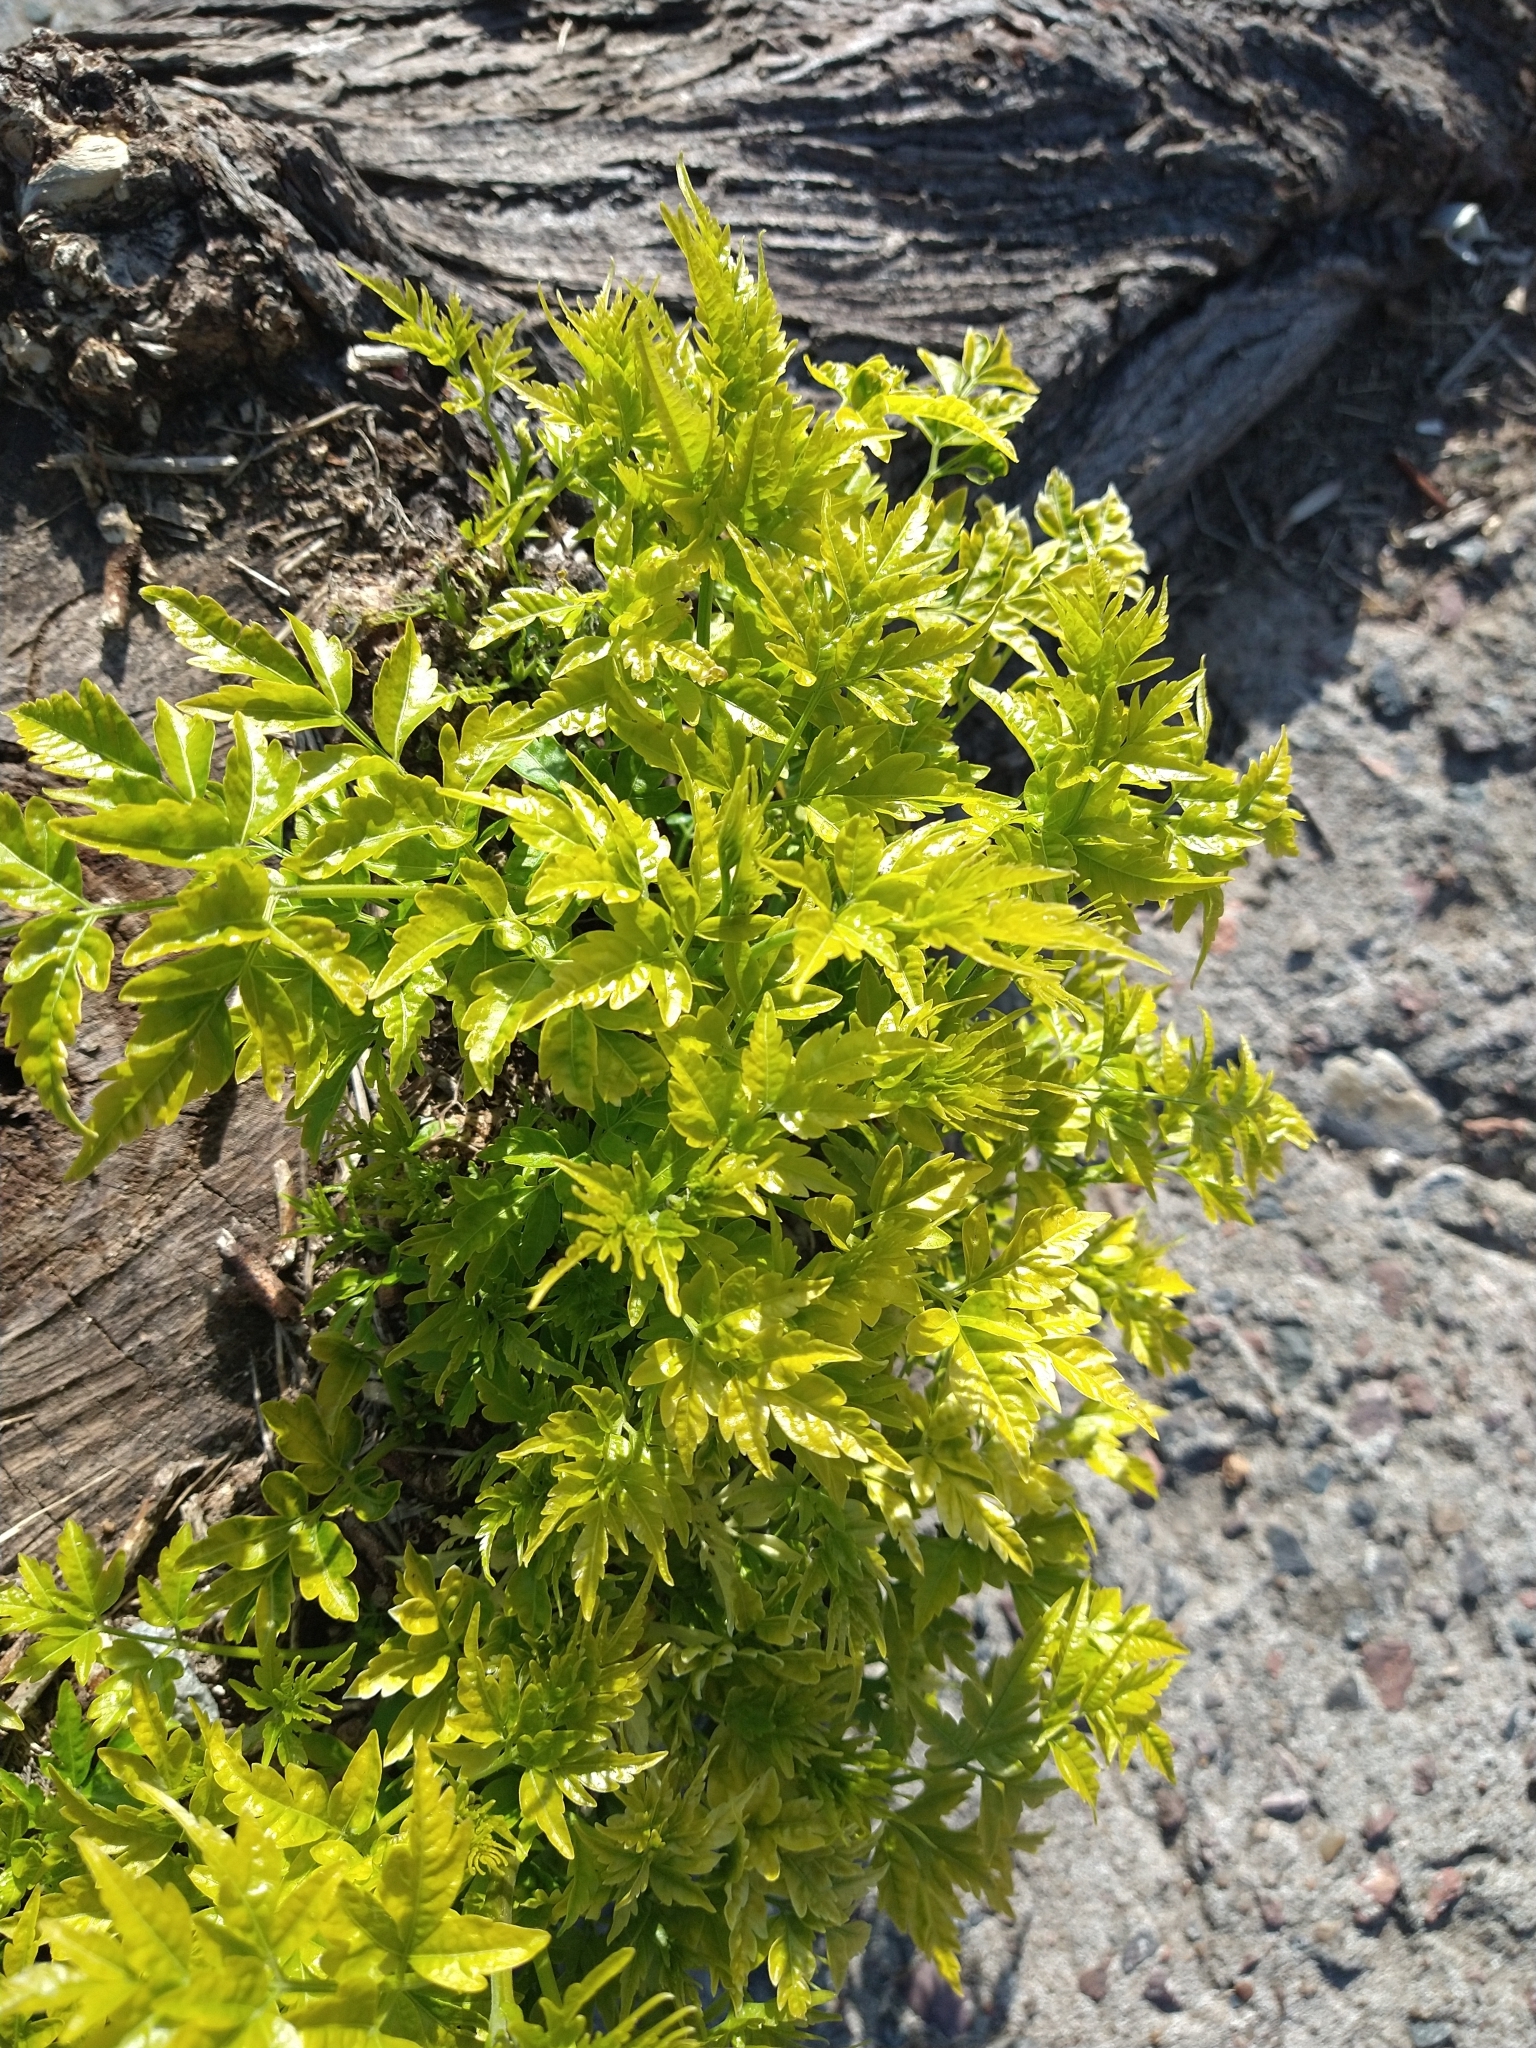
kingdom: Plantae
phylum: Tracheophyta
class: Magnoliopsida
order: Sapindales
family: Meliaceae
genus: Melia
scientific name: Melia azedarach
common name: Chinaberrytree
